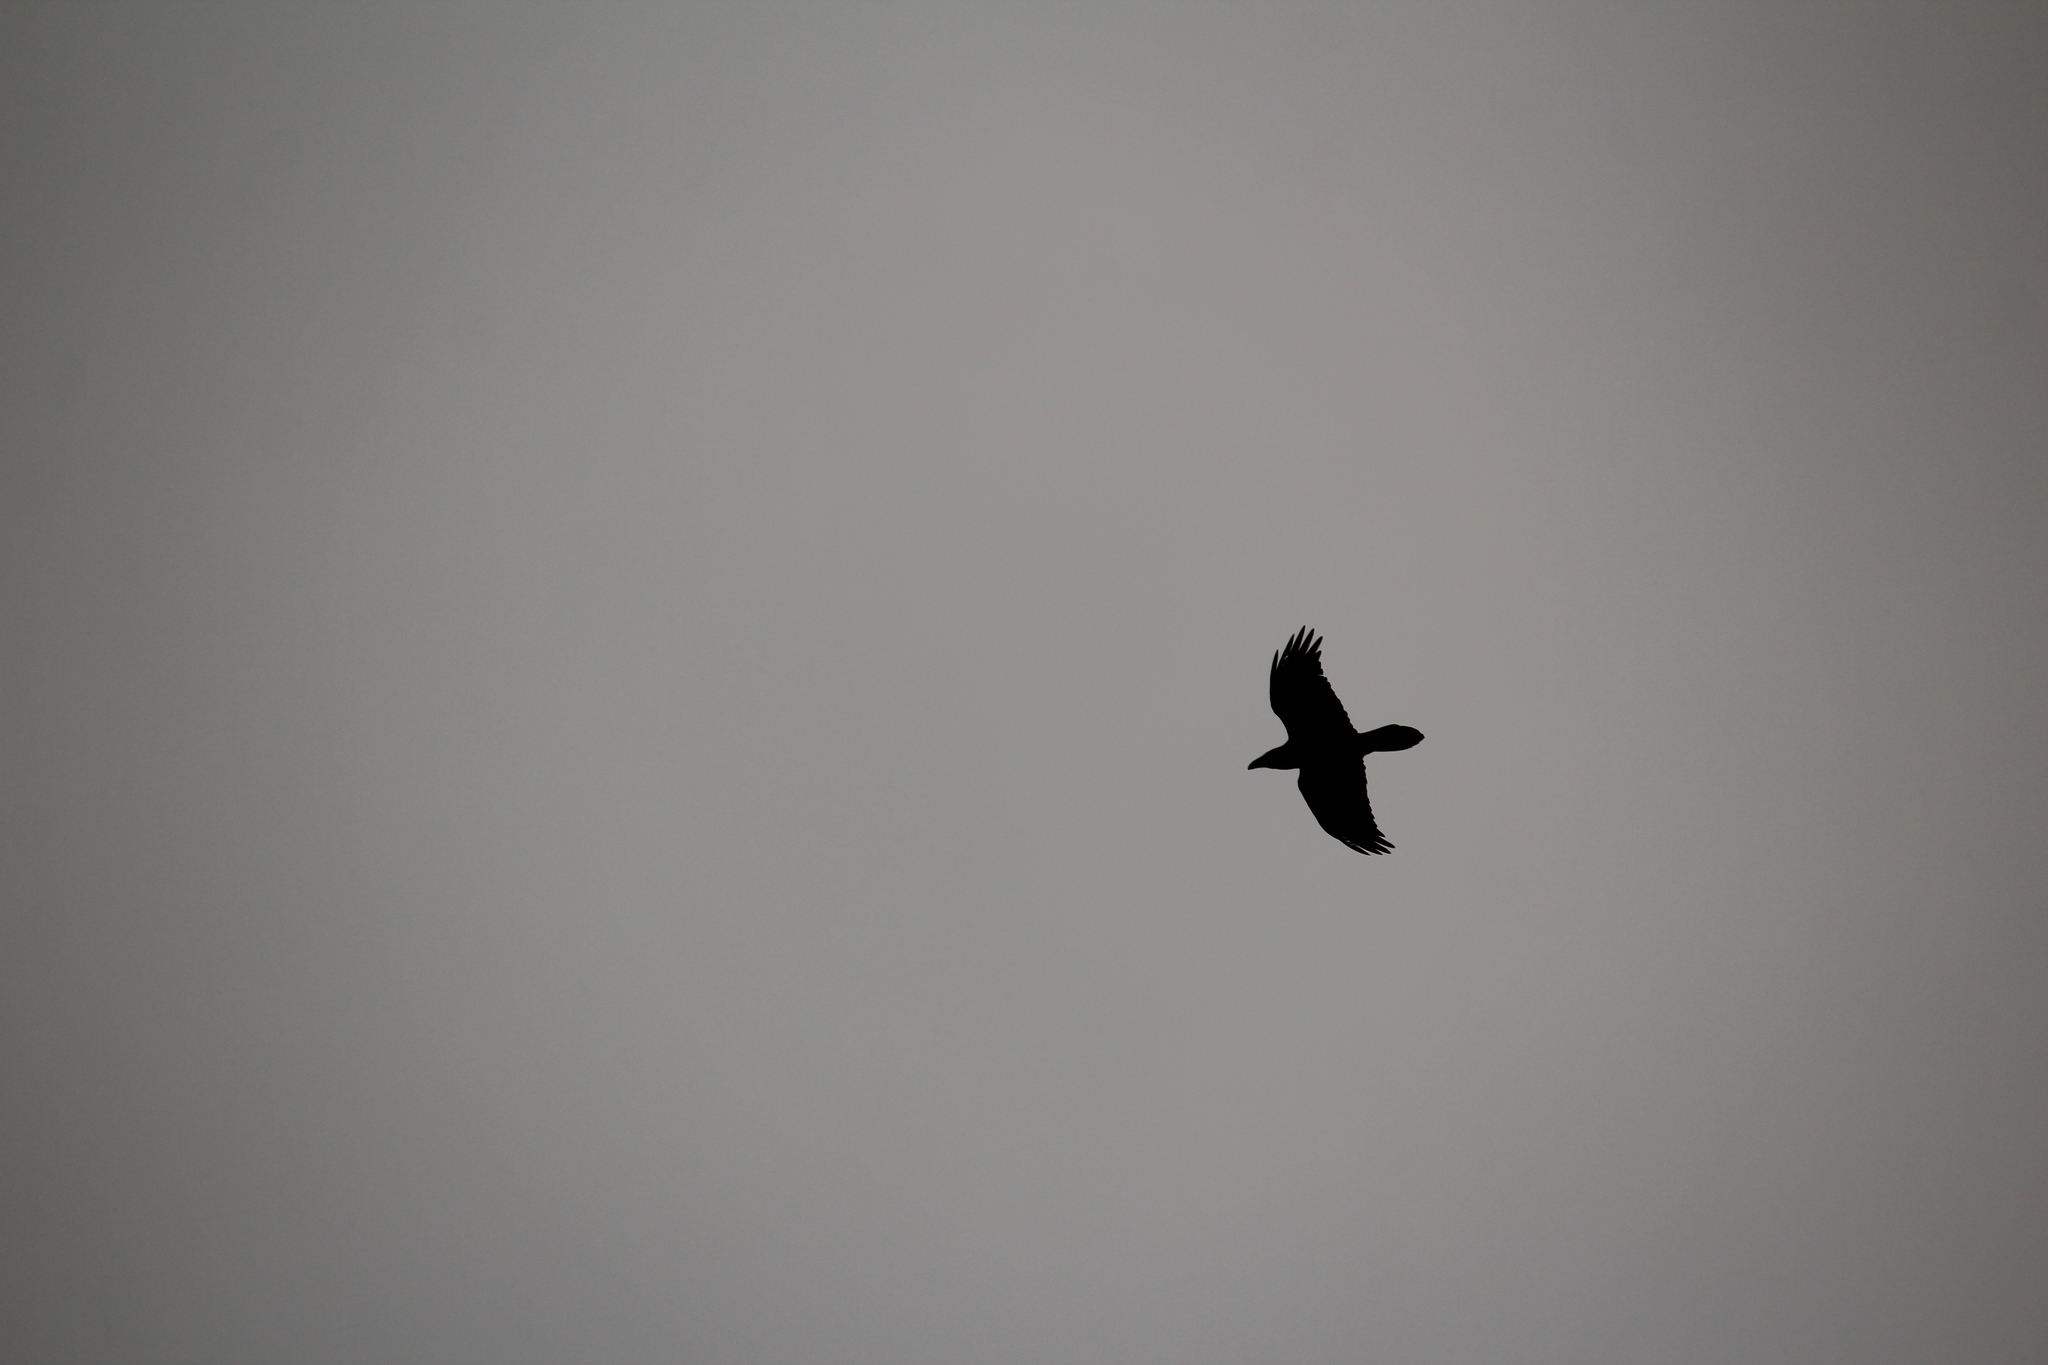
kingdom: Animalia
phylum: Chordata
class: Aves
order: Passeriformes
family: Corvidae
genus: Corvus
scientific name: Corvus corax
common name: Common raven
